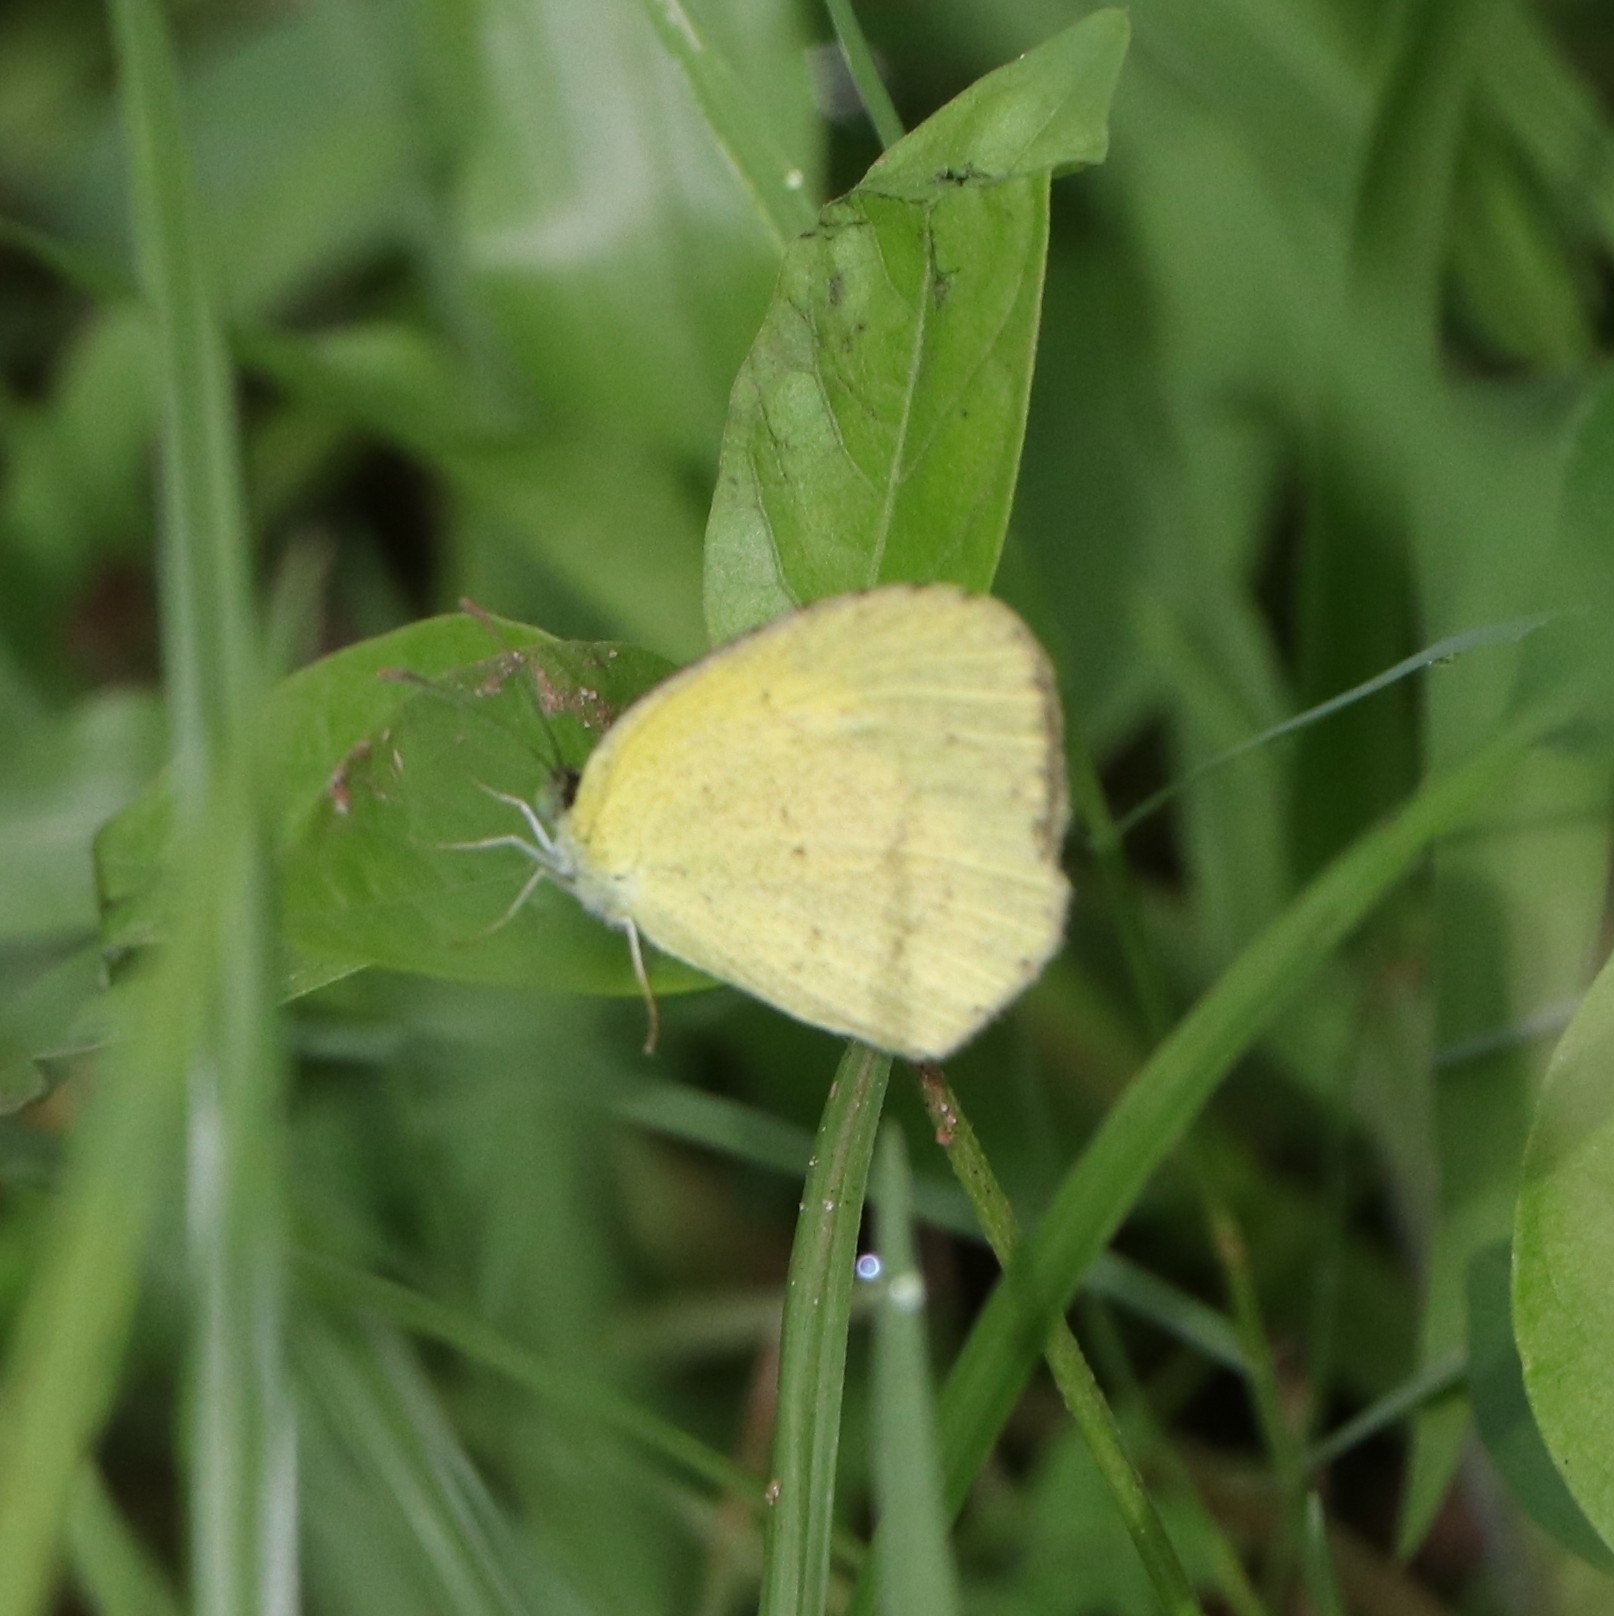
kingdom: Animalia
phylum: Arthropoda
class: Insecta
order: Lepidoptera
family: Pieridae
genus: Eurema
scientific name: Eurema brigitta
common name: Small grass yellow
